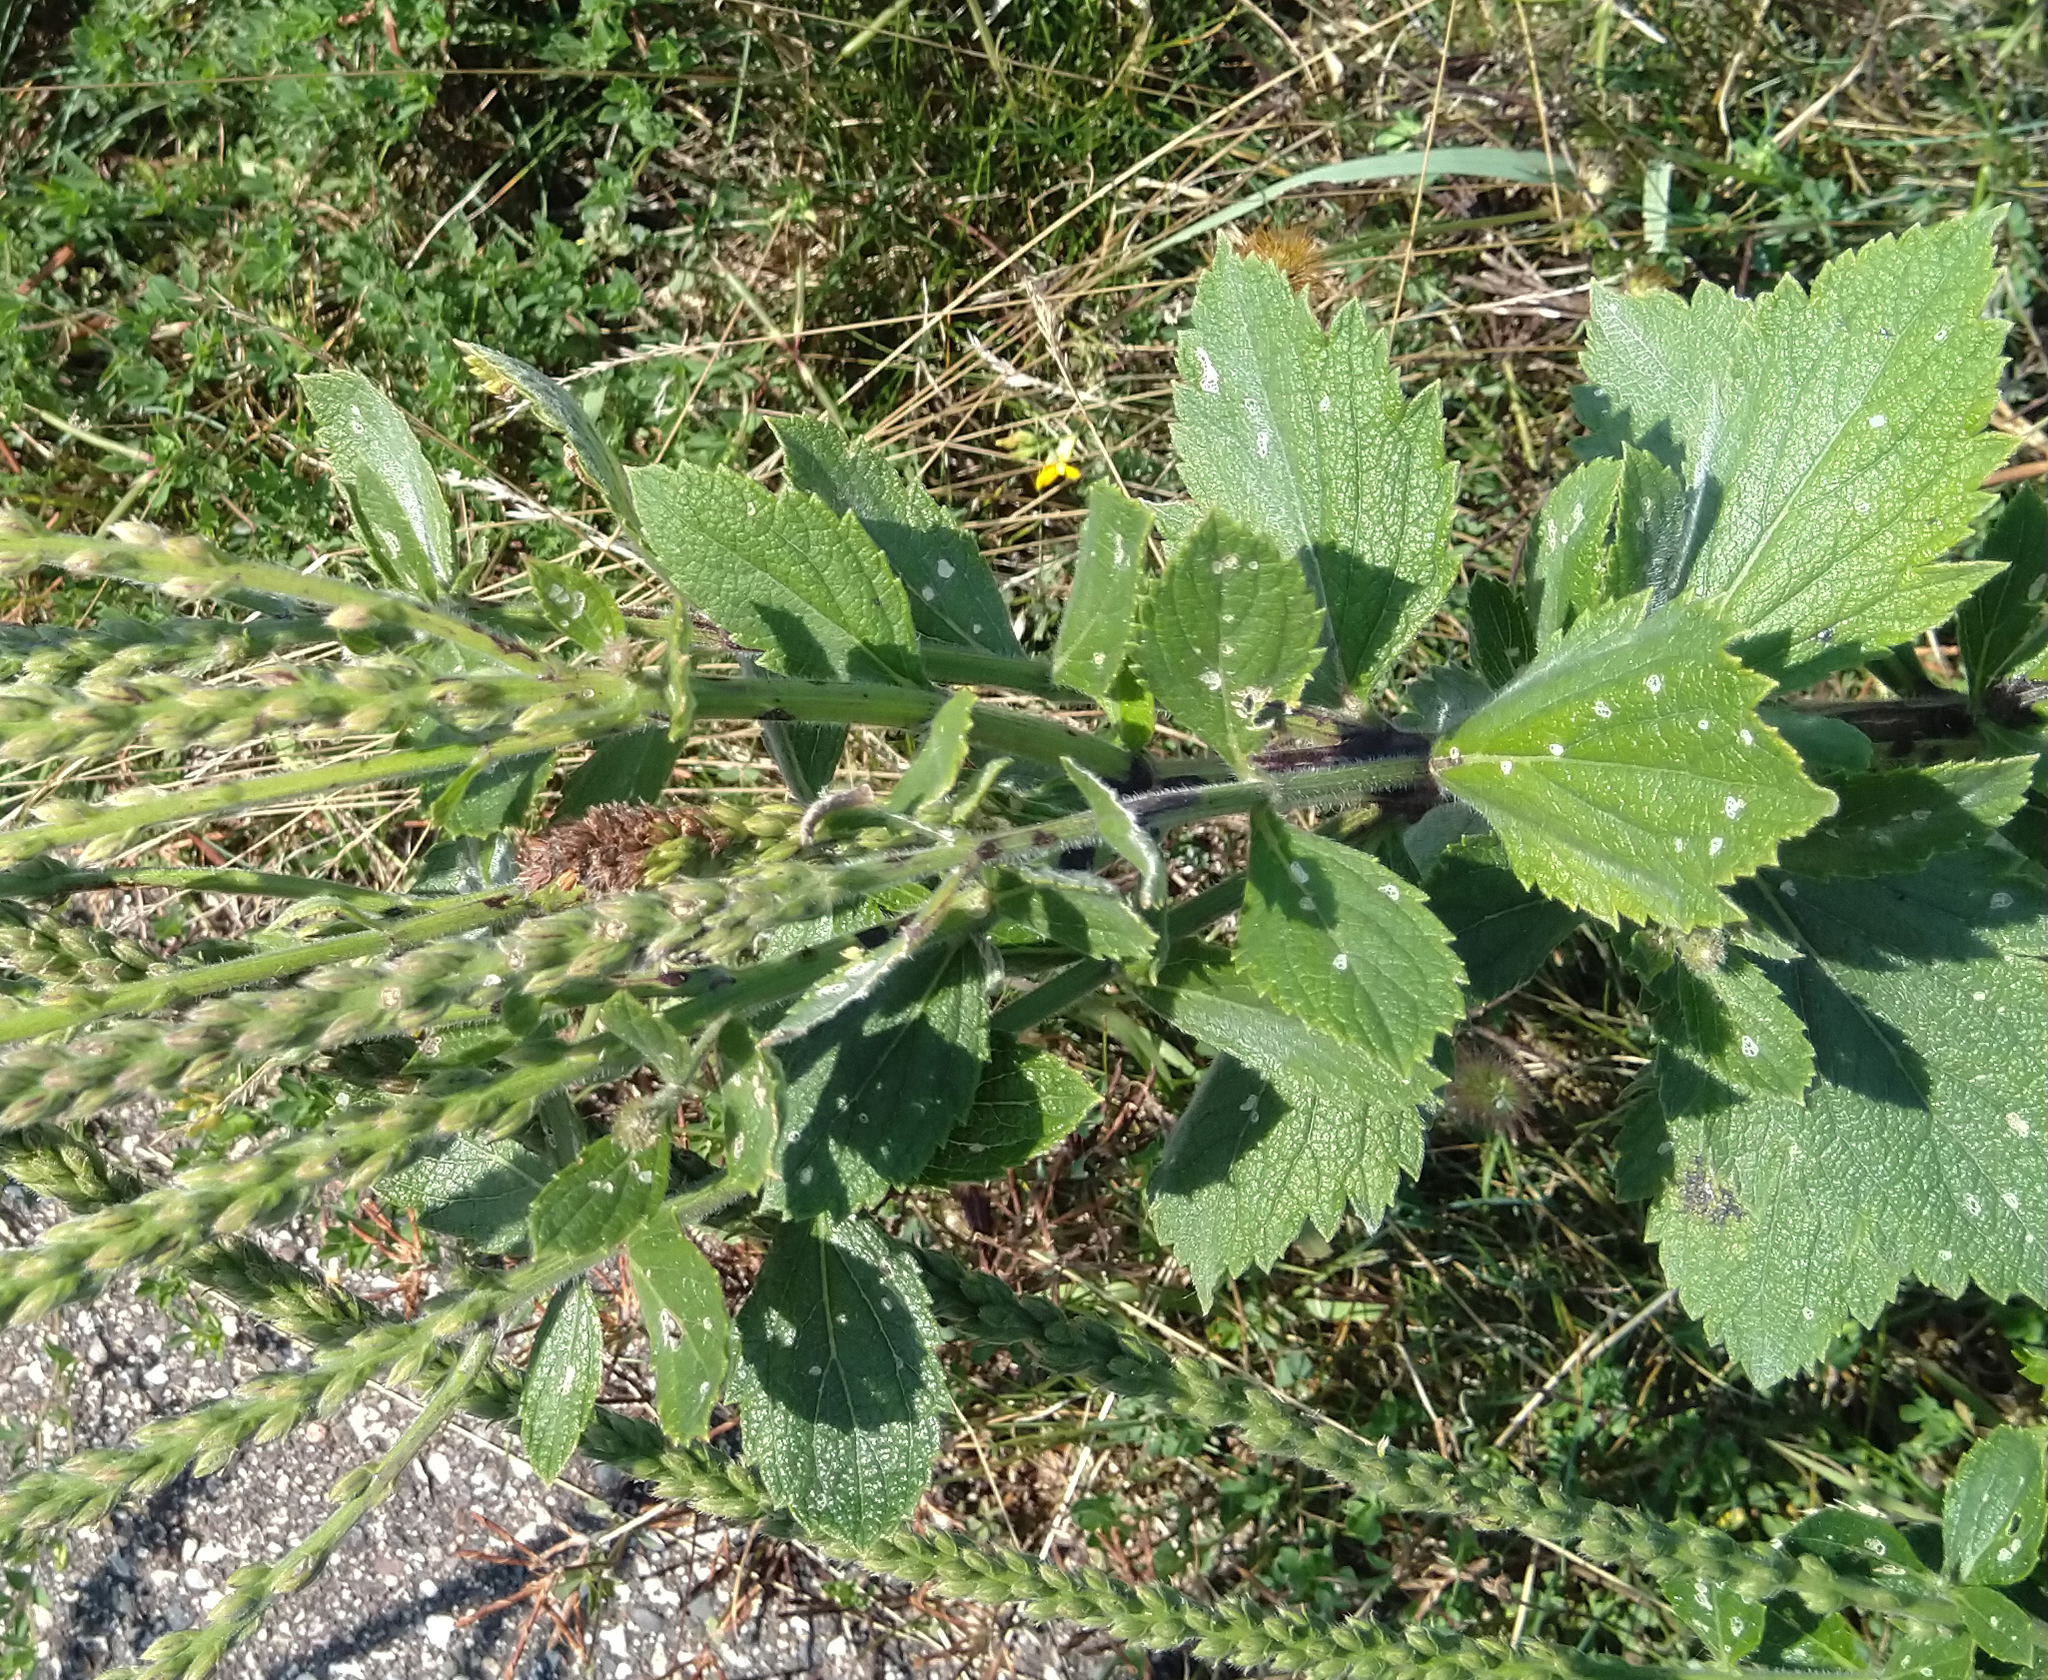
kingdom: Plantae
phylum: Tracheophyta
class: Magnoliopsida
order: Lamiales
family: Verbenaceae
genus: Verbena
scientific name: Verbena stricta
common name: Hoary vervain
